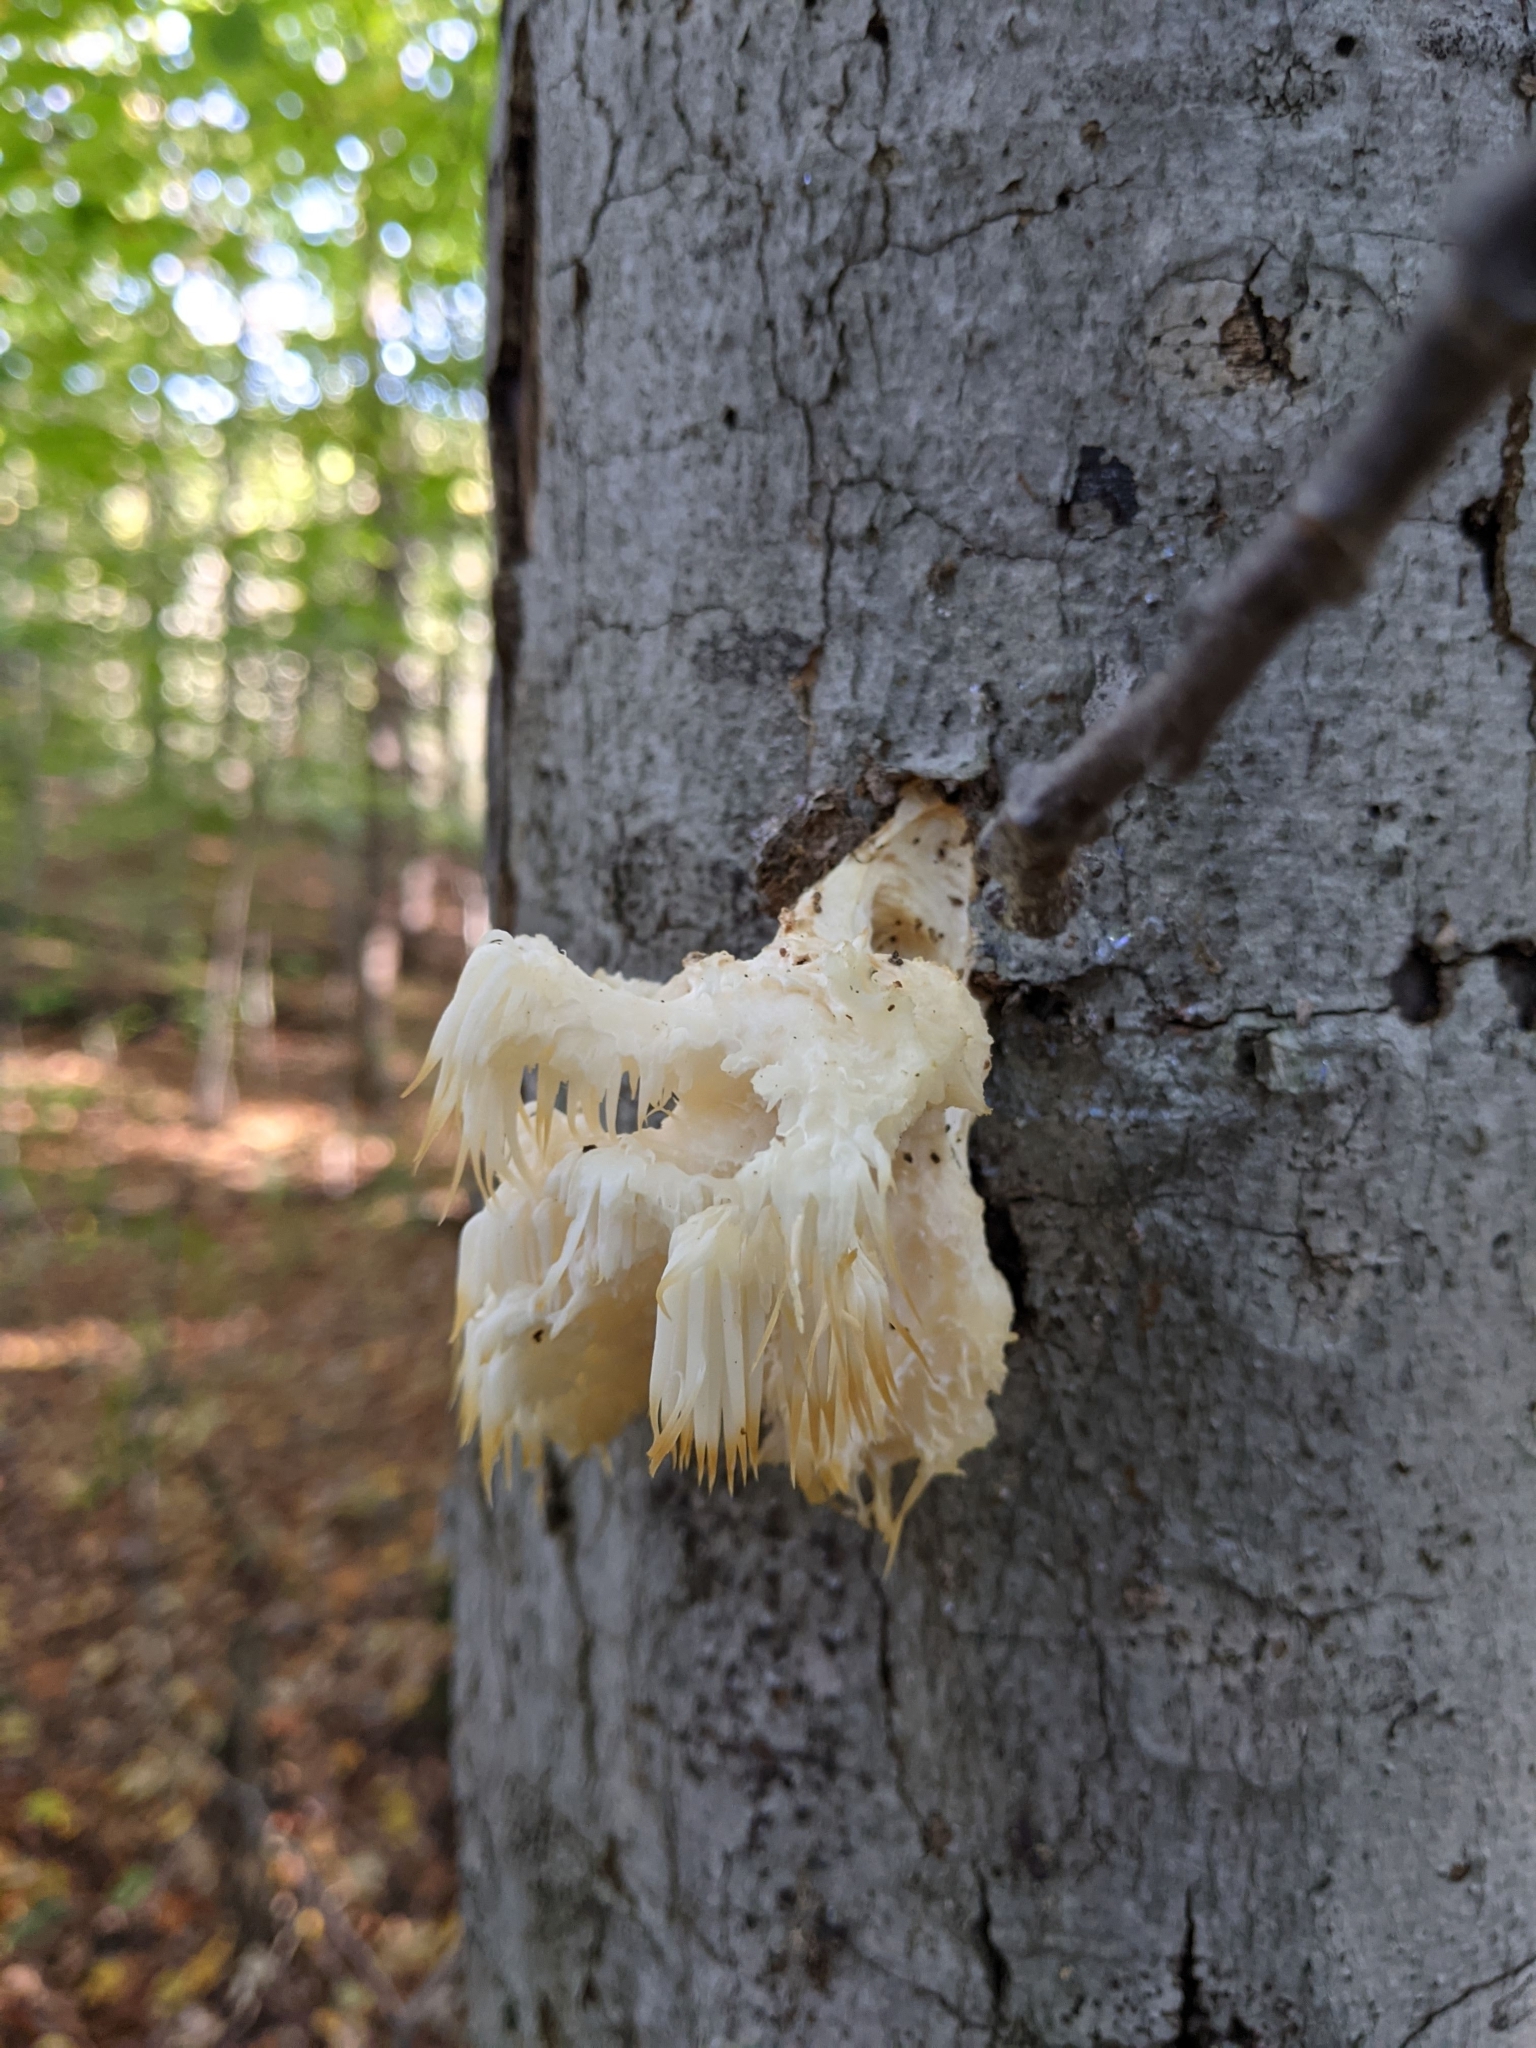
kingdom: Fungi
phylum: Basidiomycota
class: Agaricomycetes
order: Russulales
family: Hericiaceae
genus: Hericium
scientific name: Hericium americanum
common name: Bear's head tooth
